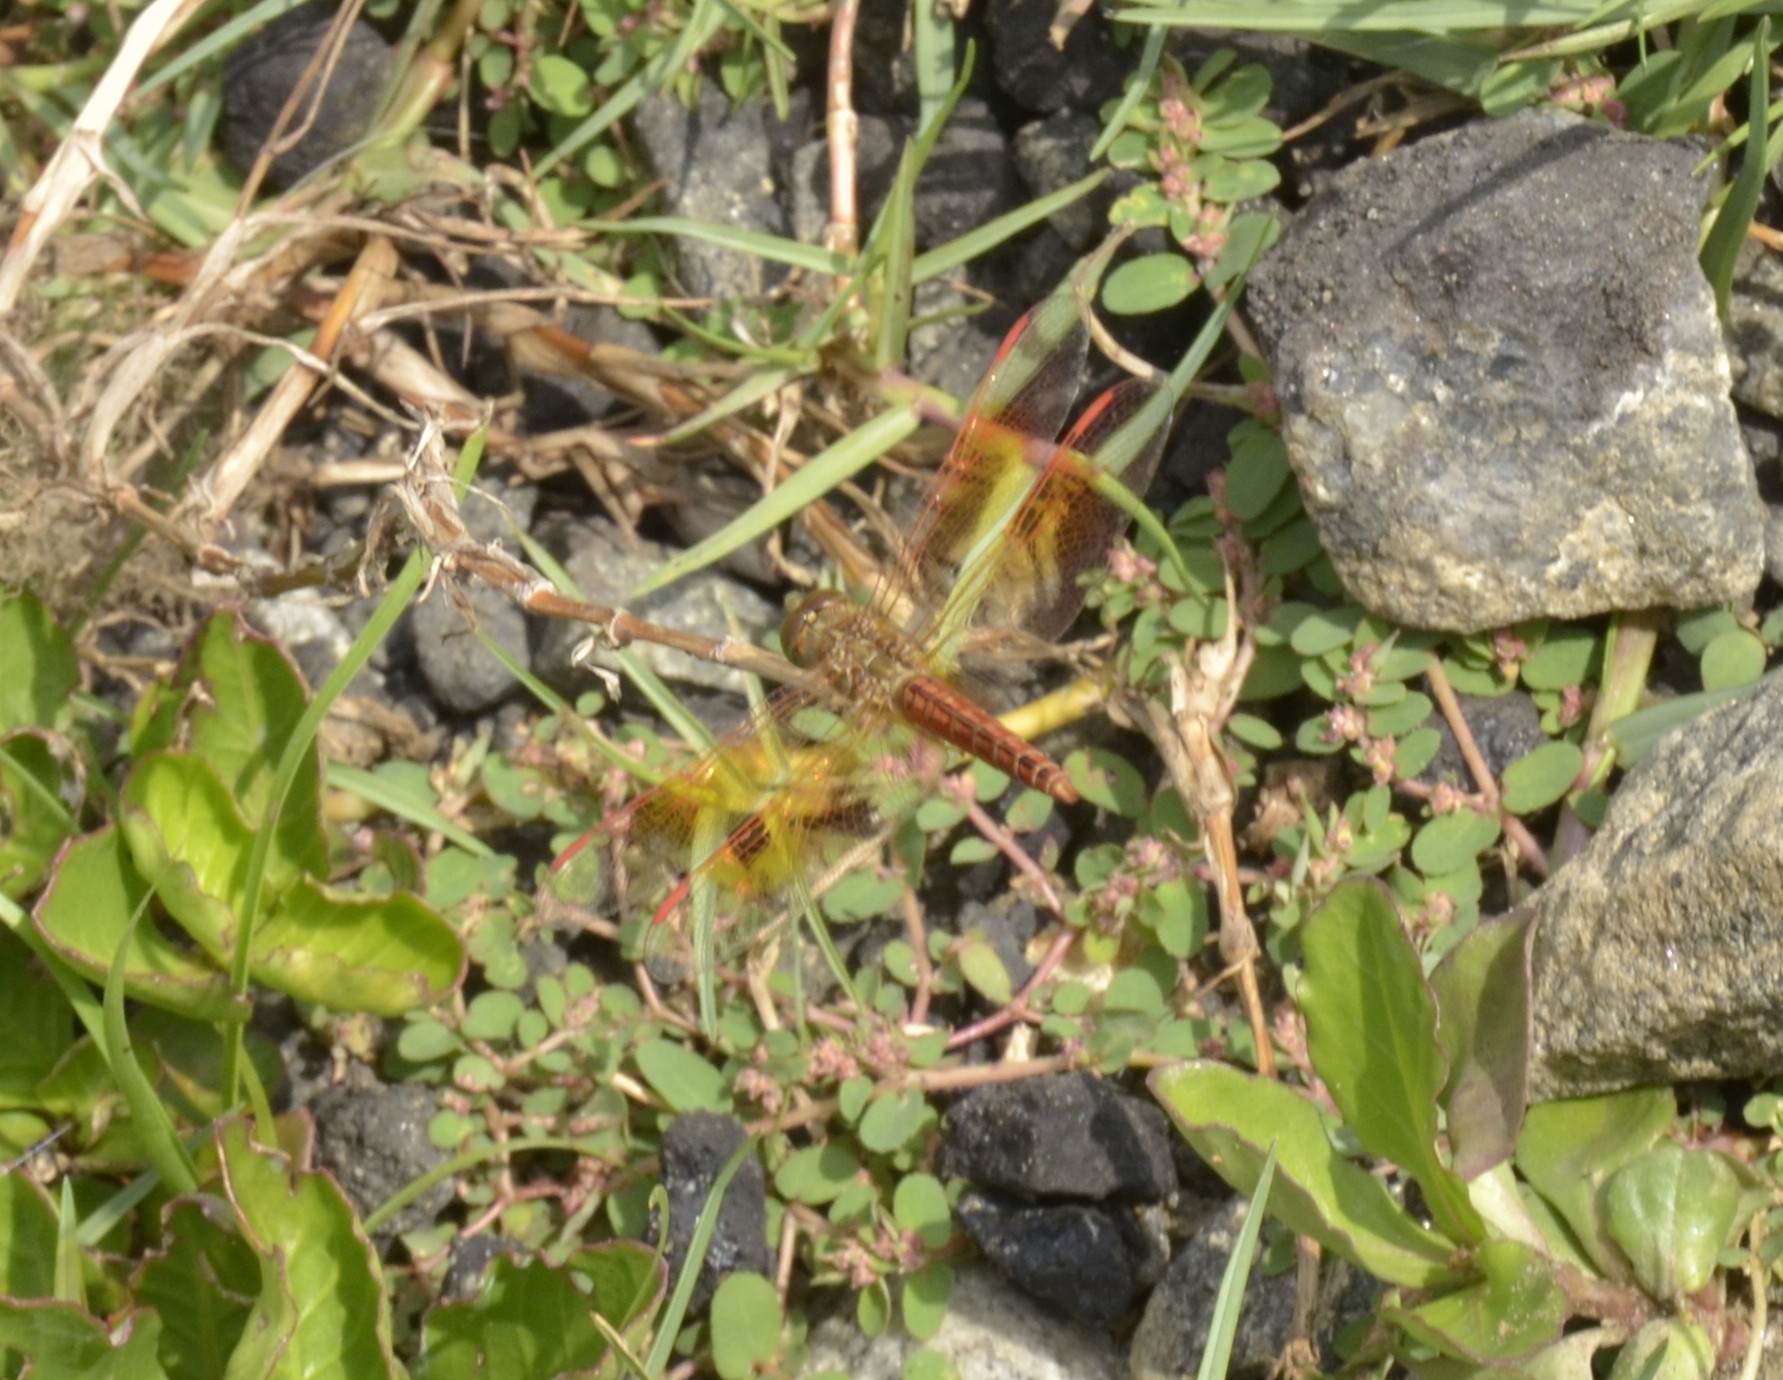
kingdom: Animalia
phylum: Arthropoda
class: Insecta
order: Odonata
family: Libellulidae
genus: Brachythemis
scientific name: Brachythemis contaminata
